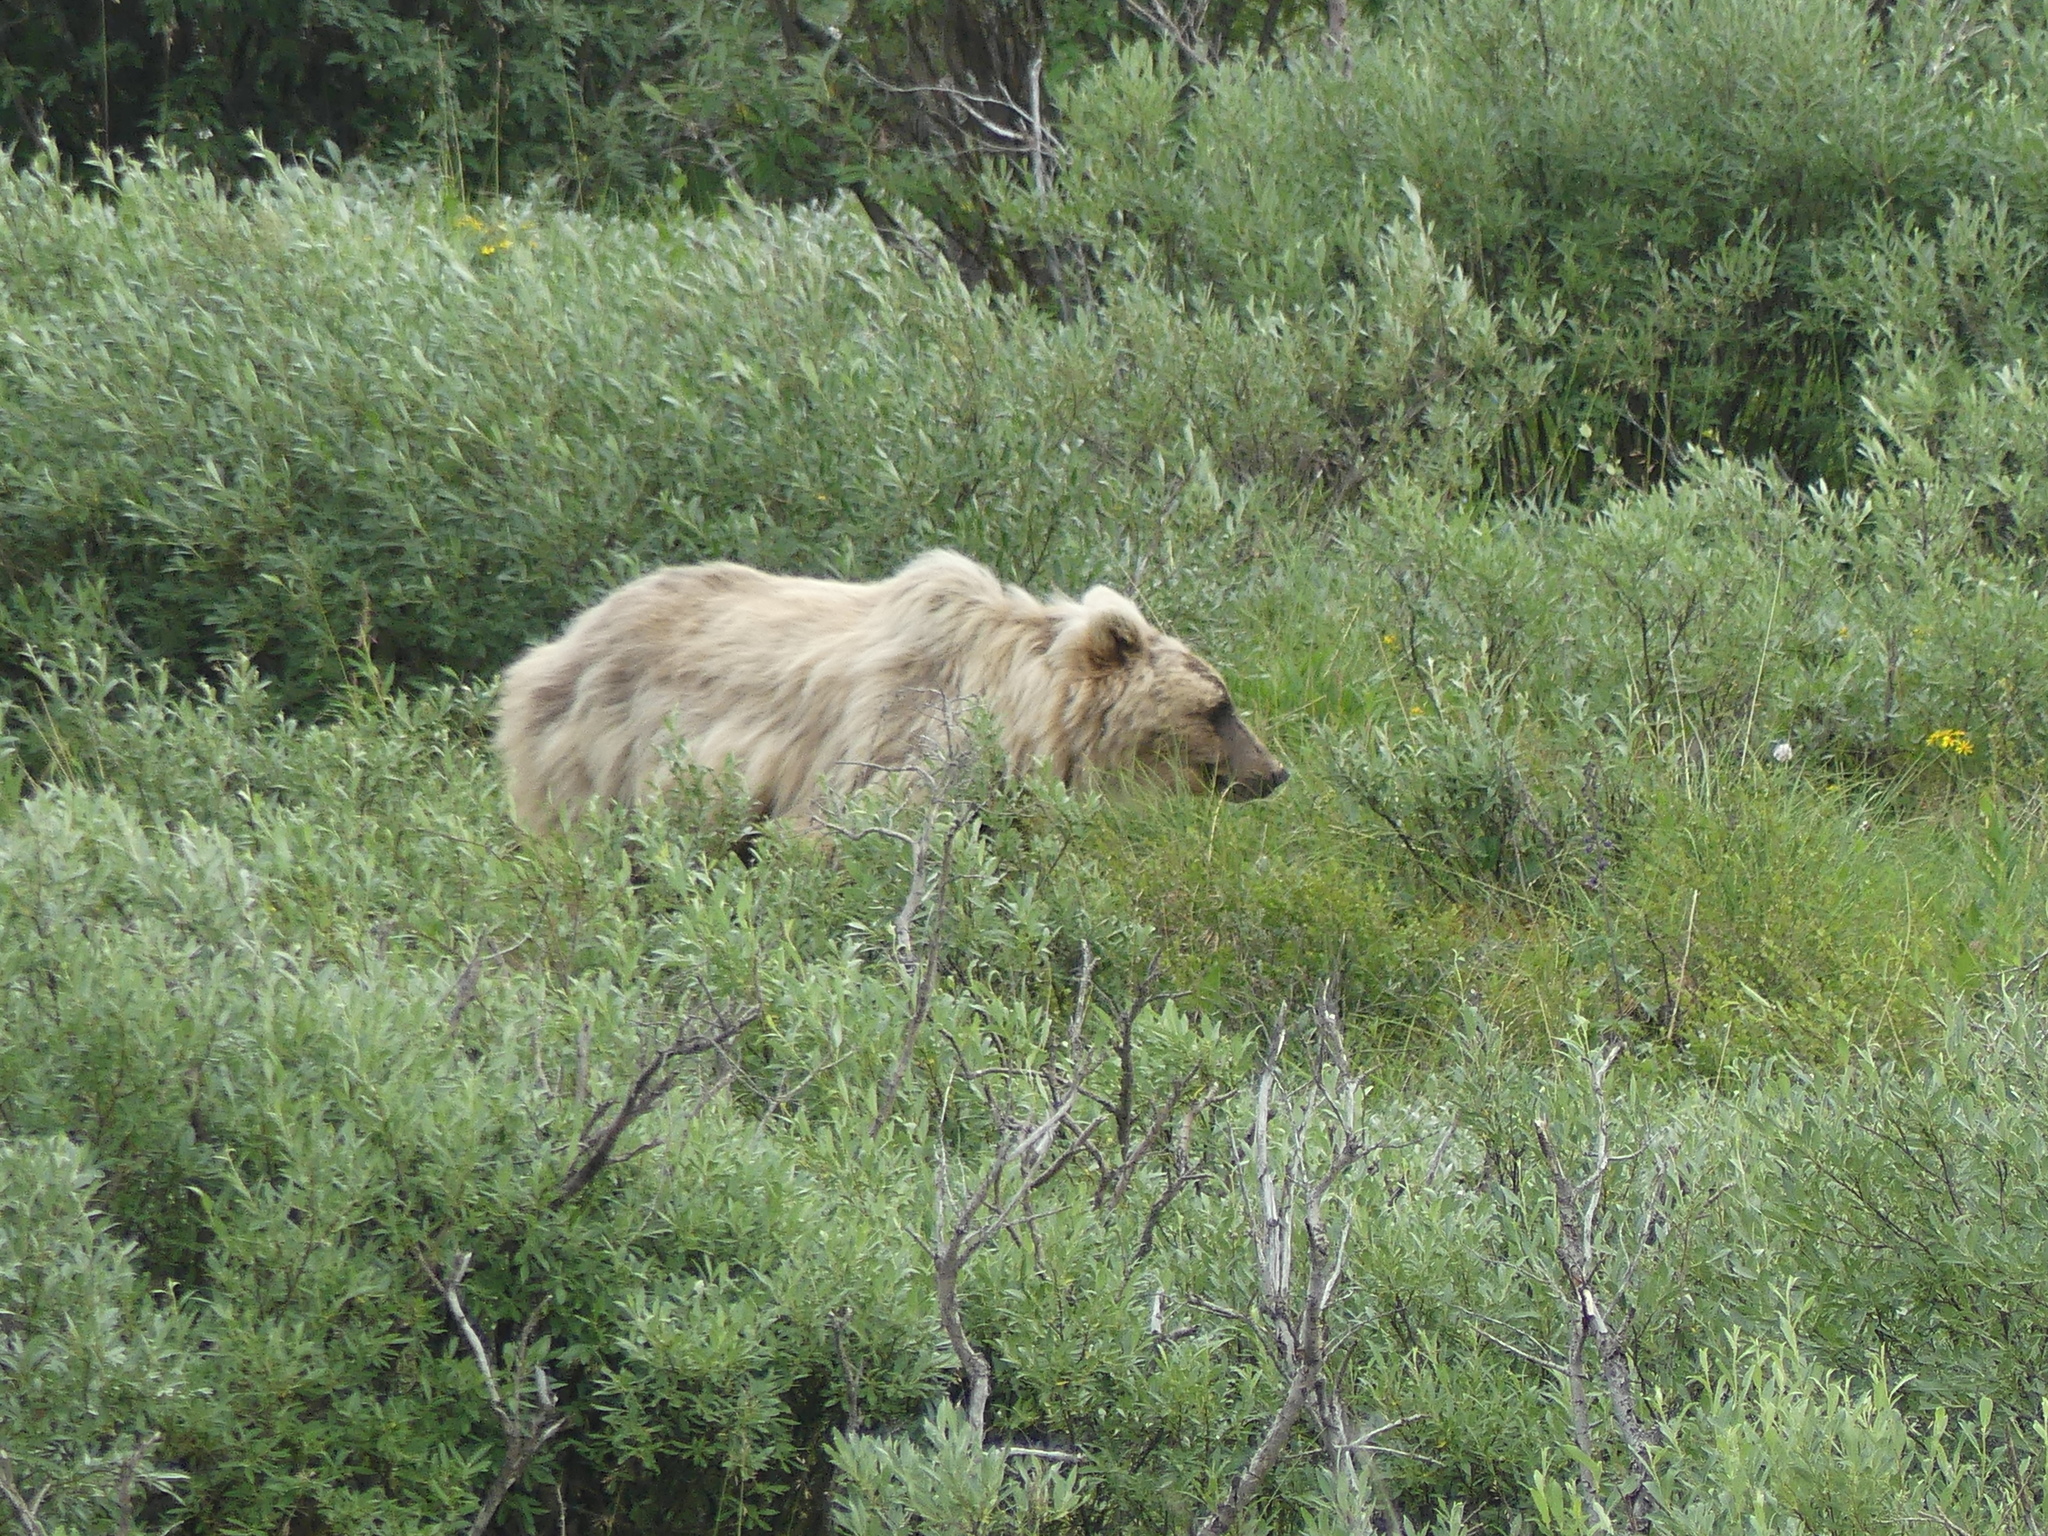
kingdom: Animalia
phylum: Chordata
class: Mammalia
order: Carnivora
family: Ursidae
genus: Ursus
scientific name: Ursus arctos
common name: Brown bear
